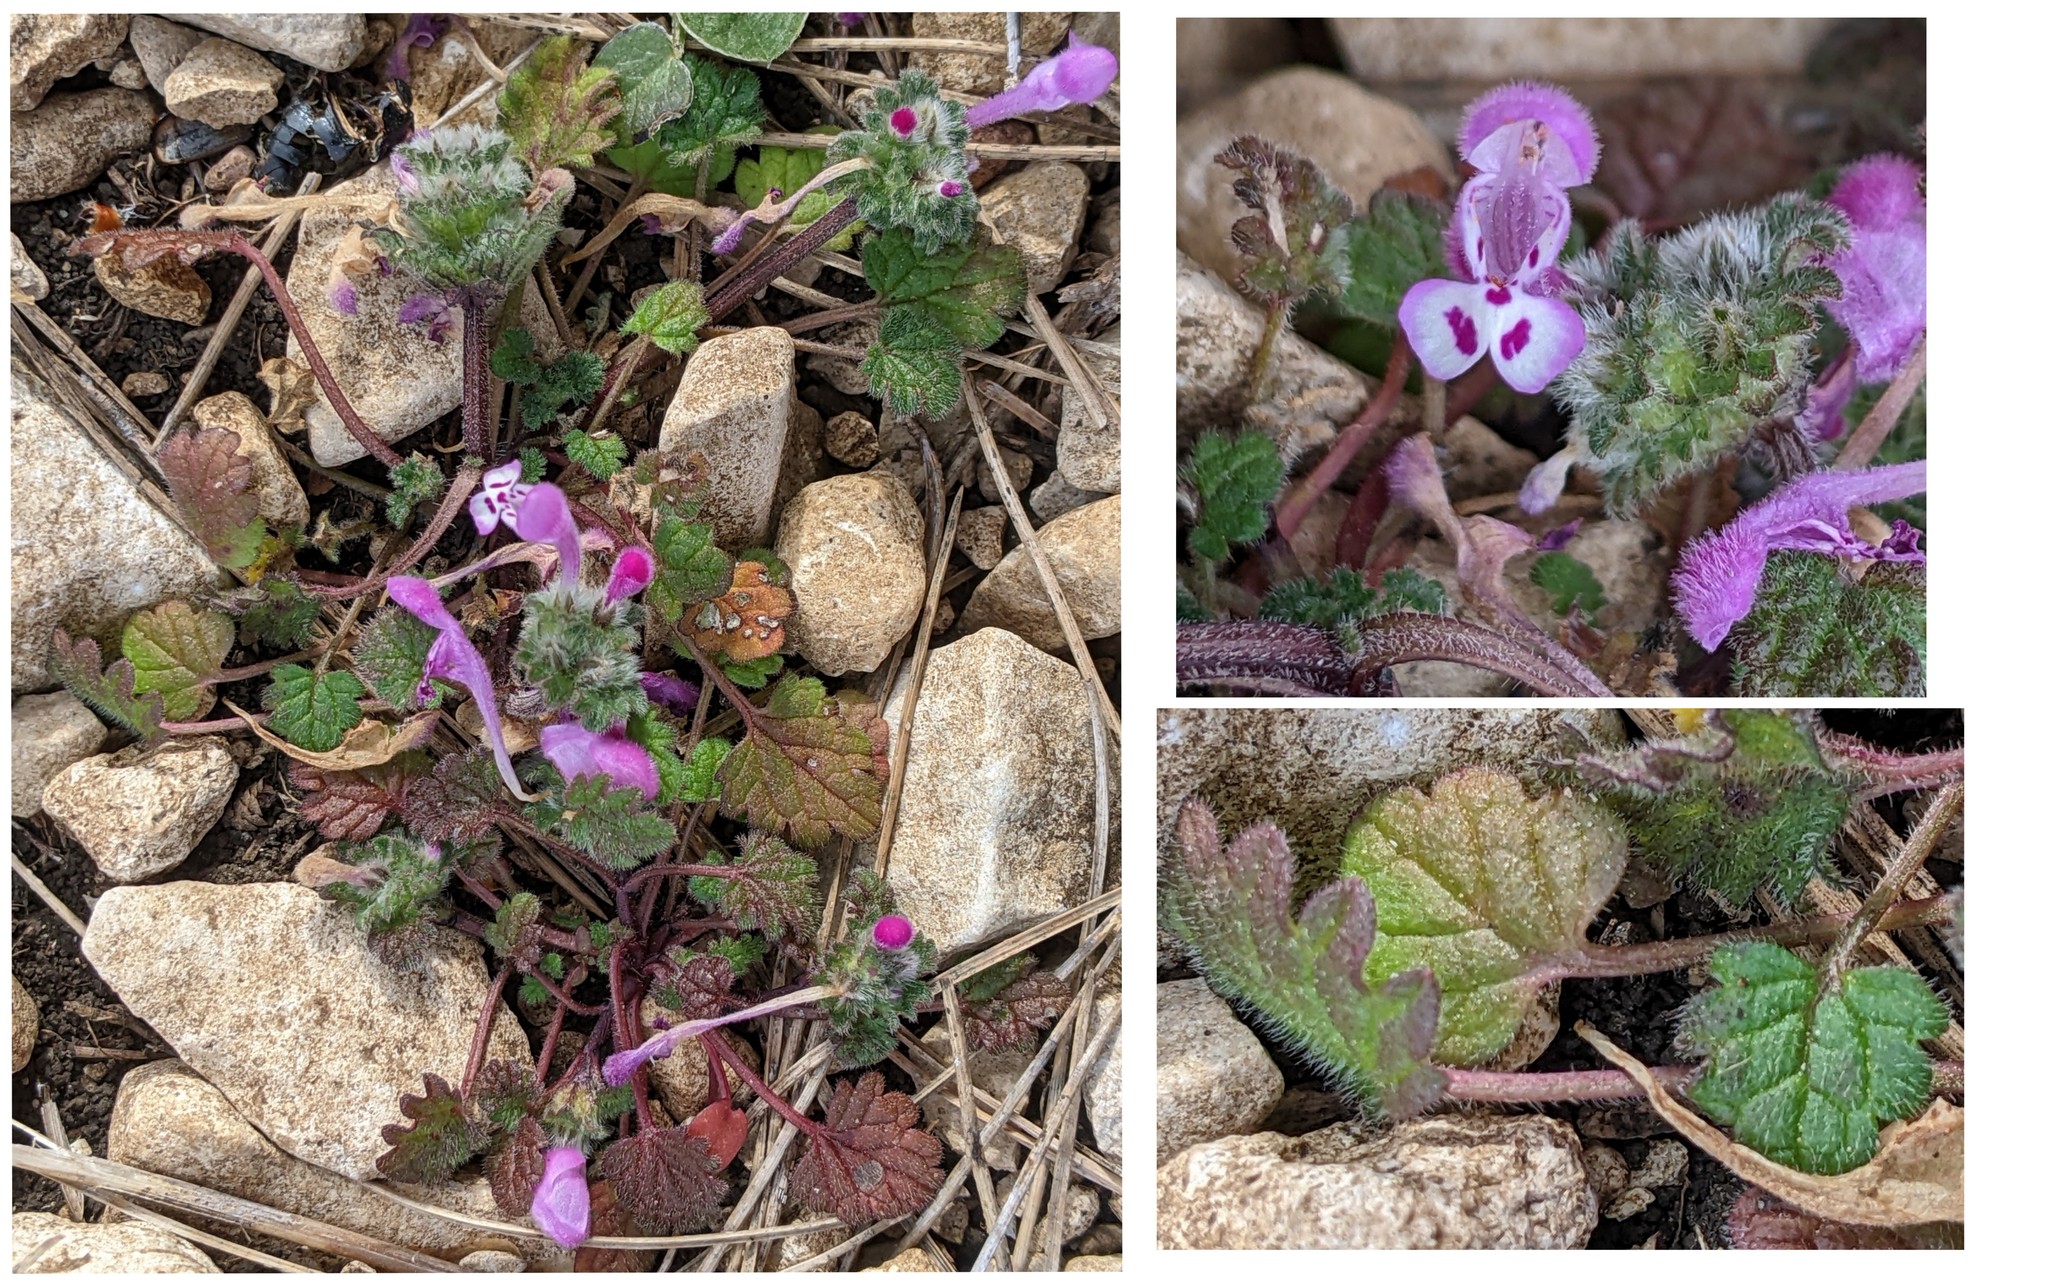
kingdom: Plantae
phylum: Tracheophyta
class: Magnoliopsida
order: Lamiales
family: Lamiaceae
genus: Lamium
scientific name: Lamium amplexicaule
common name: Henbit dead-nettle
